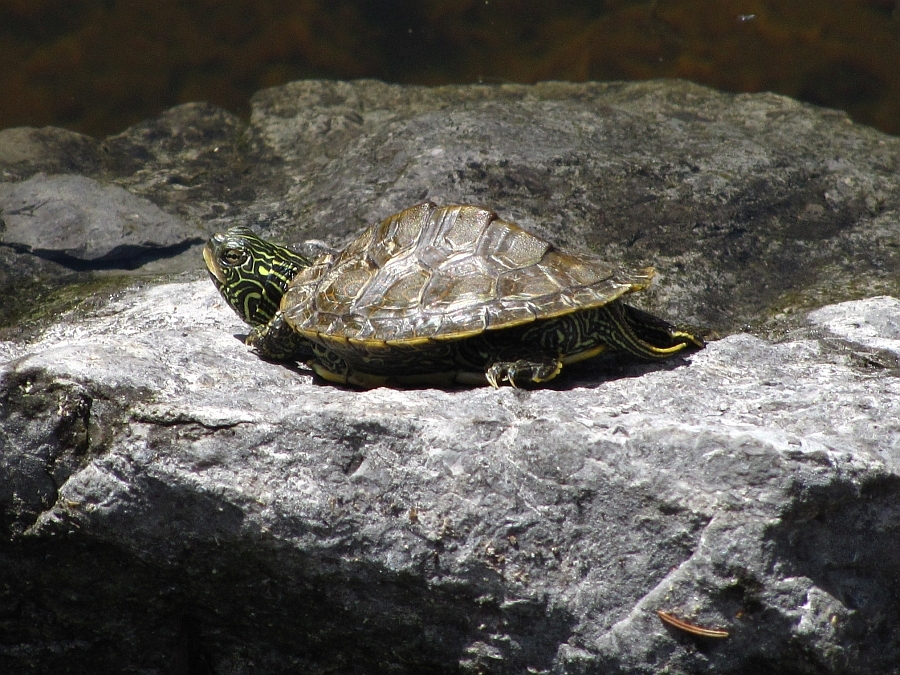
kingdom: Animalia
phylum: Chordata
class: Testudines
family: Emydidae
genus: Graptemys
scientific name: Graptemys geographica
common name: Common map turtle
